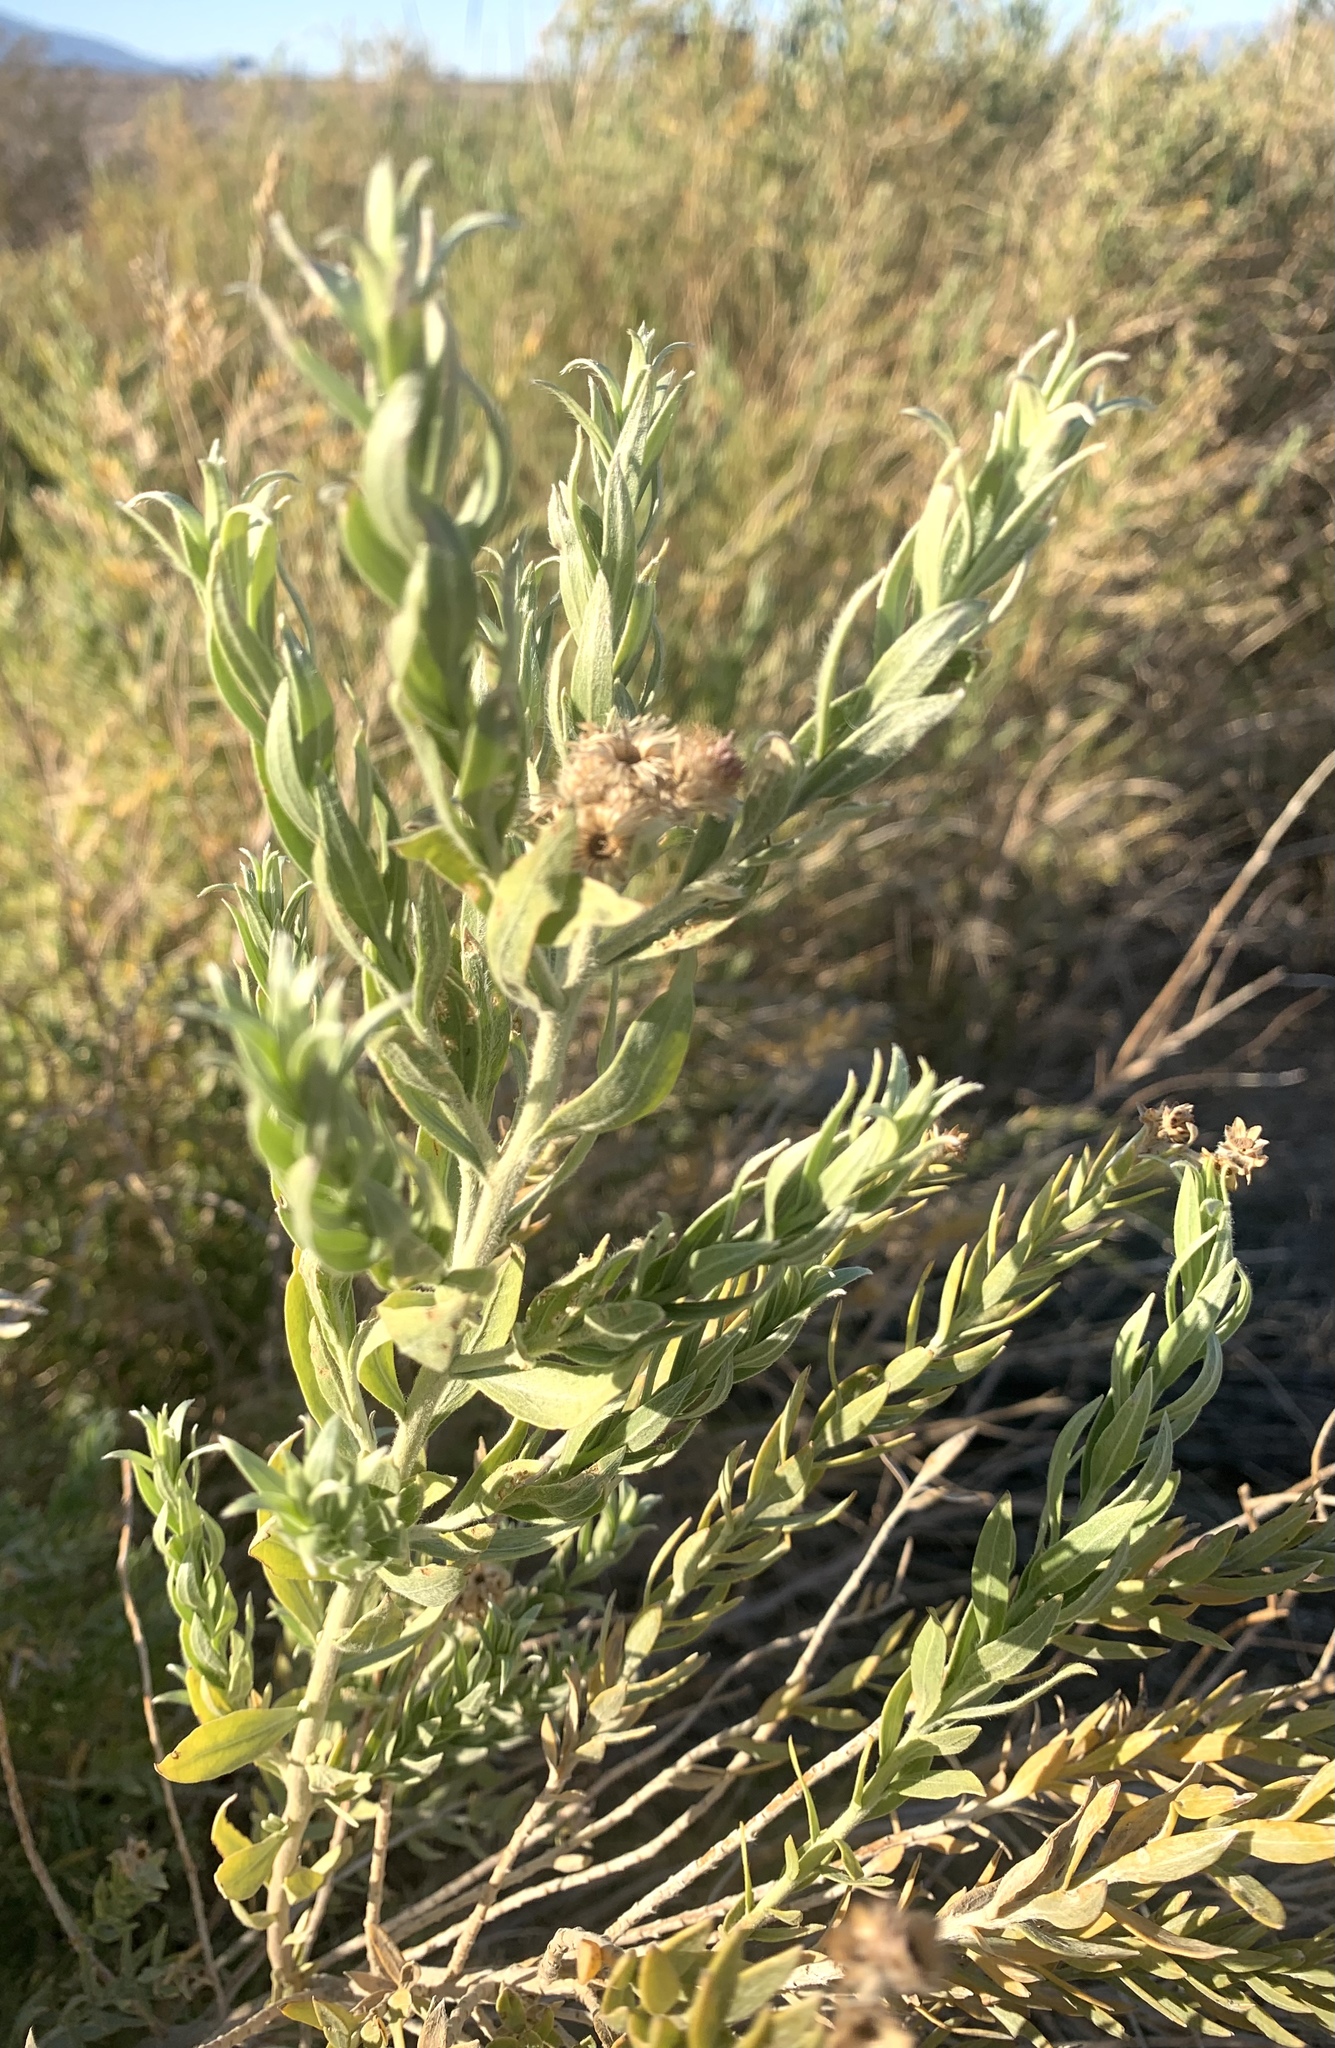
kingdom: Plantae
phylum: Tracheophyta
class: Magnoliopsida
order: Asterales
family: Asteraceae
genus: Pluchea
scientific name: Pluchea sericea
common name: Arrow-weed
